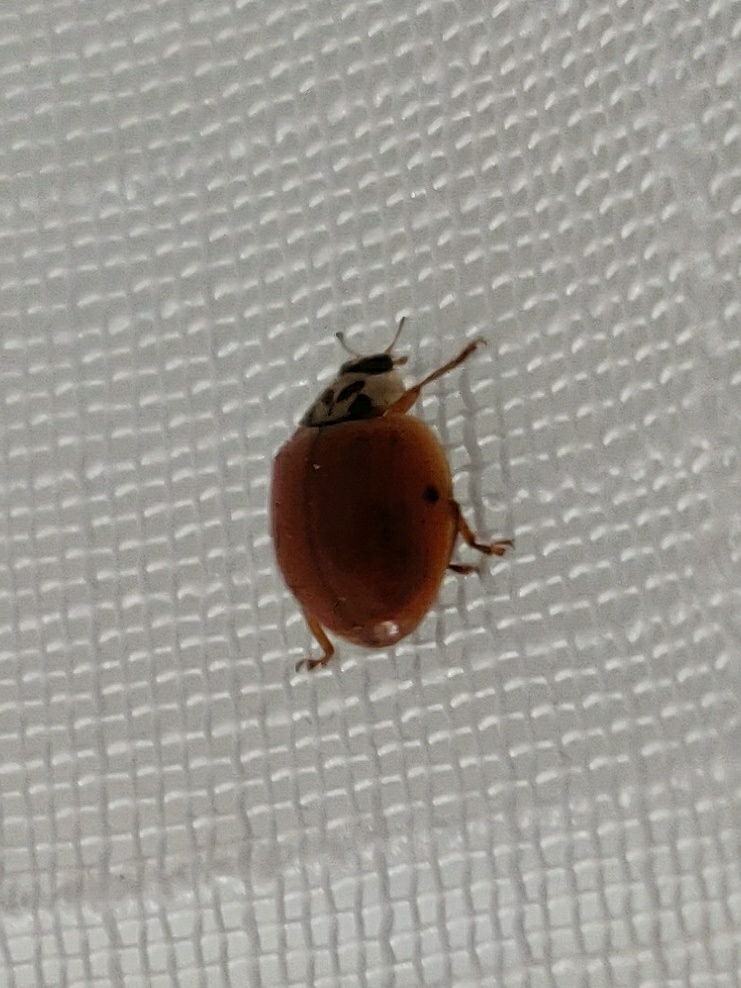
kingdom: Animalia
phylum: Arthropoda
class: Insecta
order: Coleoptera
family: Coccinellidae
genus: Harmonia
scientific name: Harmonia axyridis
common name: Harlequin ladybird
